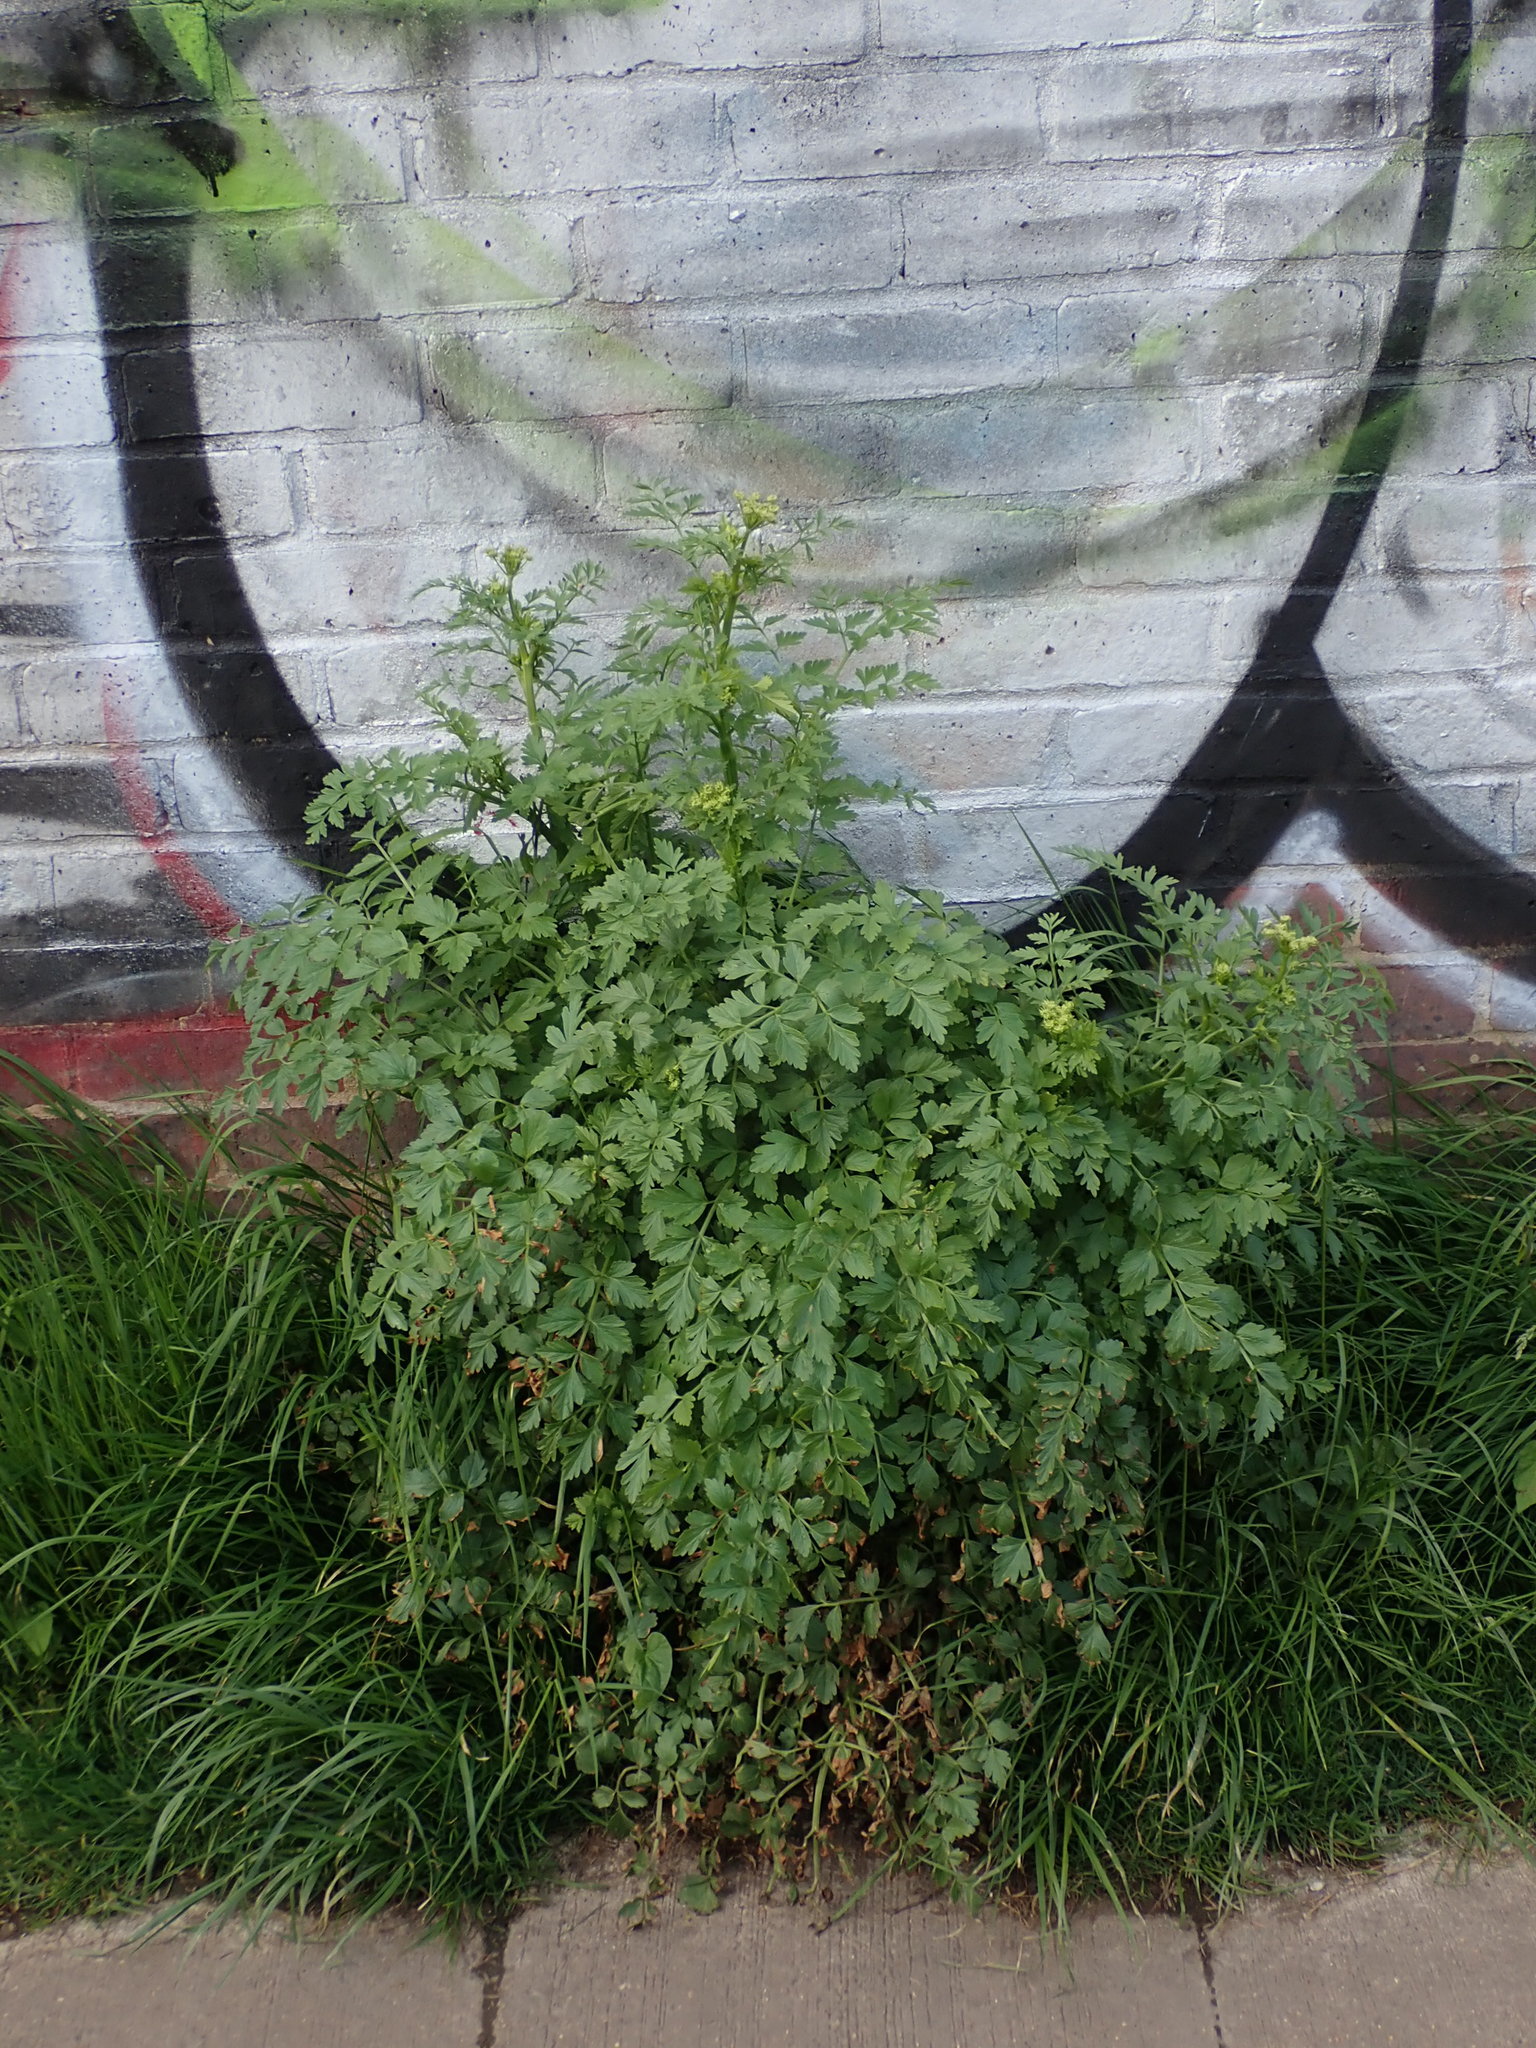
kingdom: Plantae
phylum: Tracheophyta
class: Magnoliopsida
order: Apiales
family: Apiaceae
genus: Oenanthe
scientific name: Oenanthe crocata
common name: Hemlock water-dropwort
